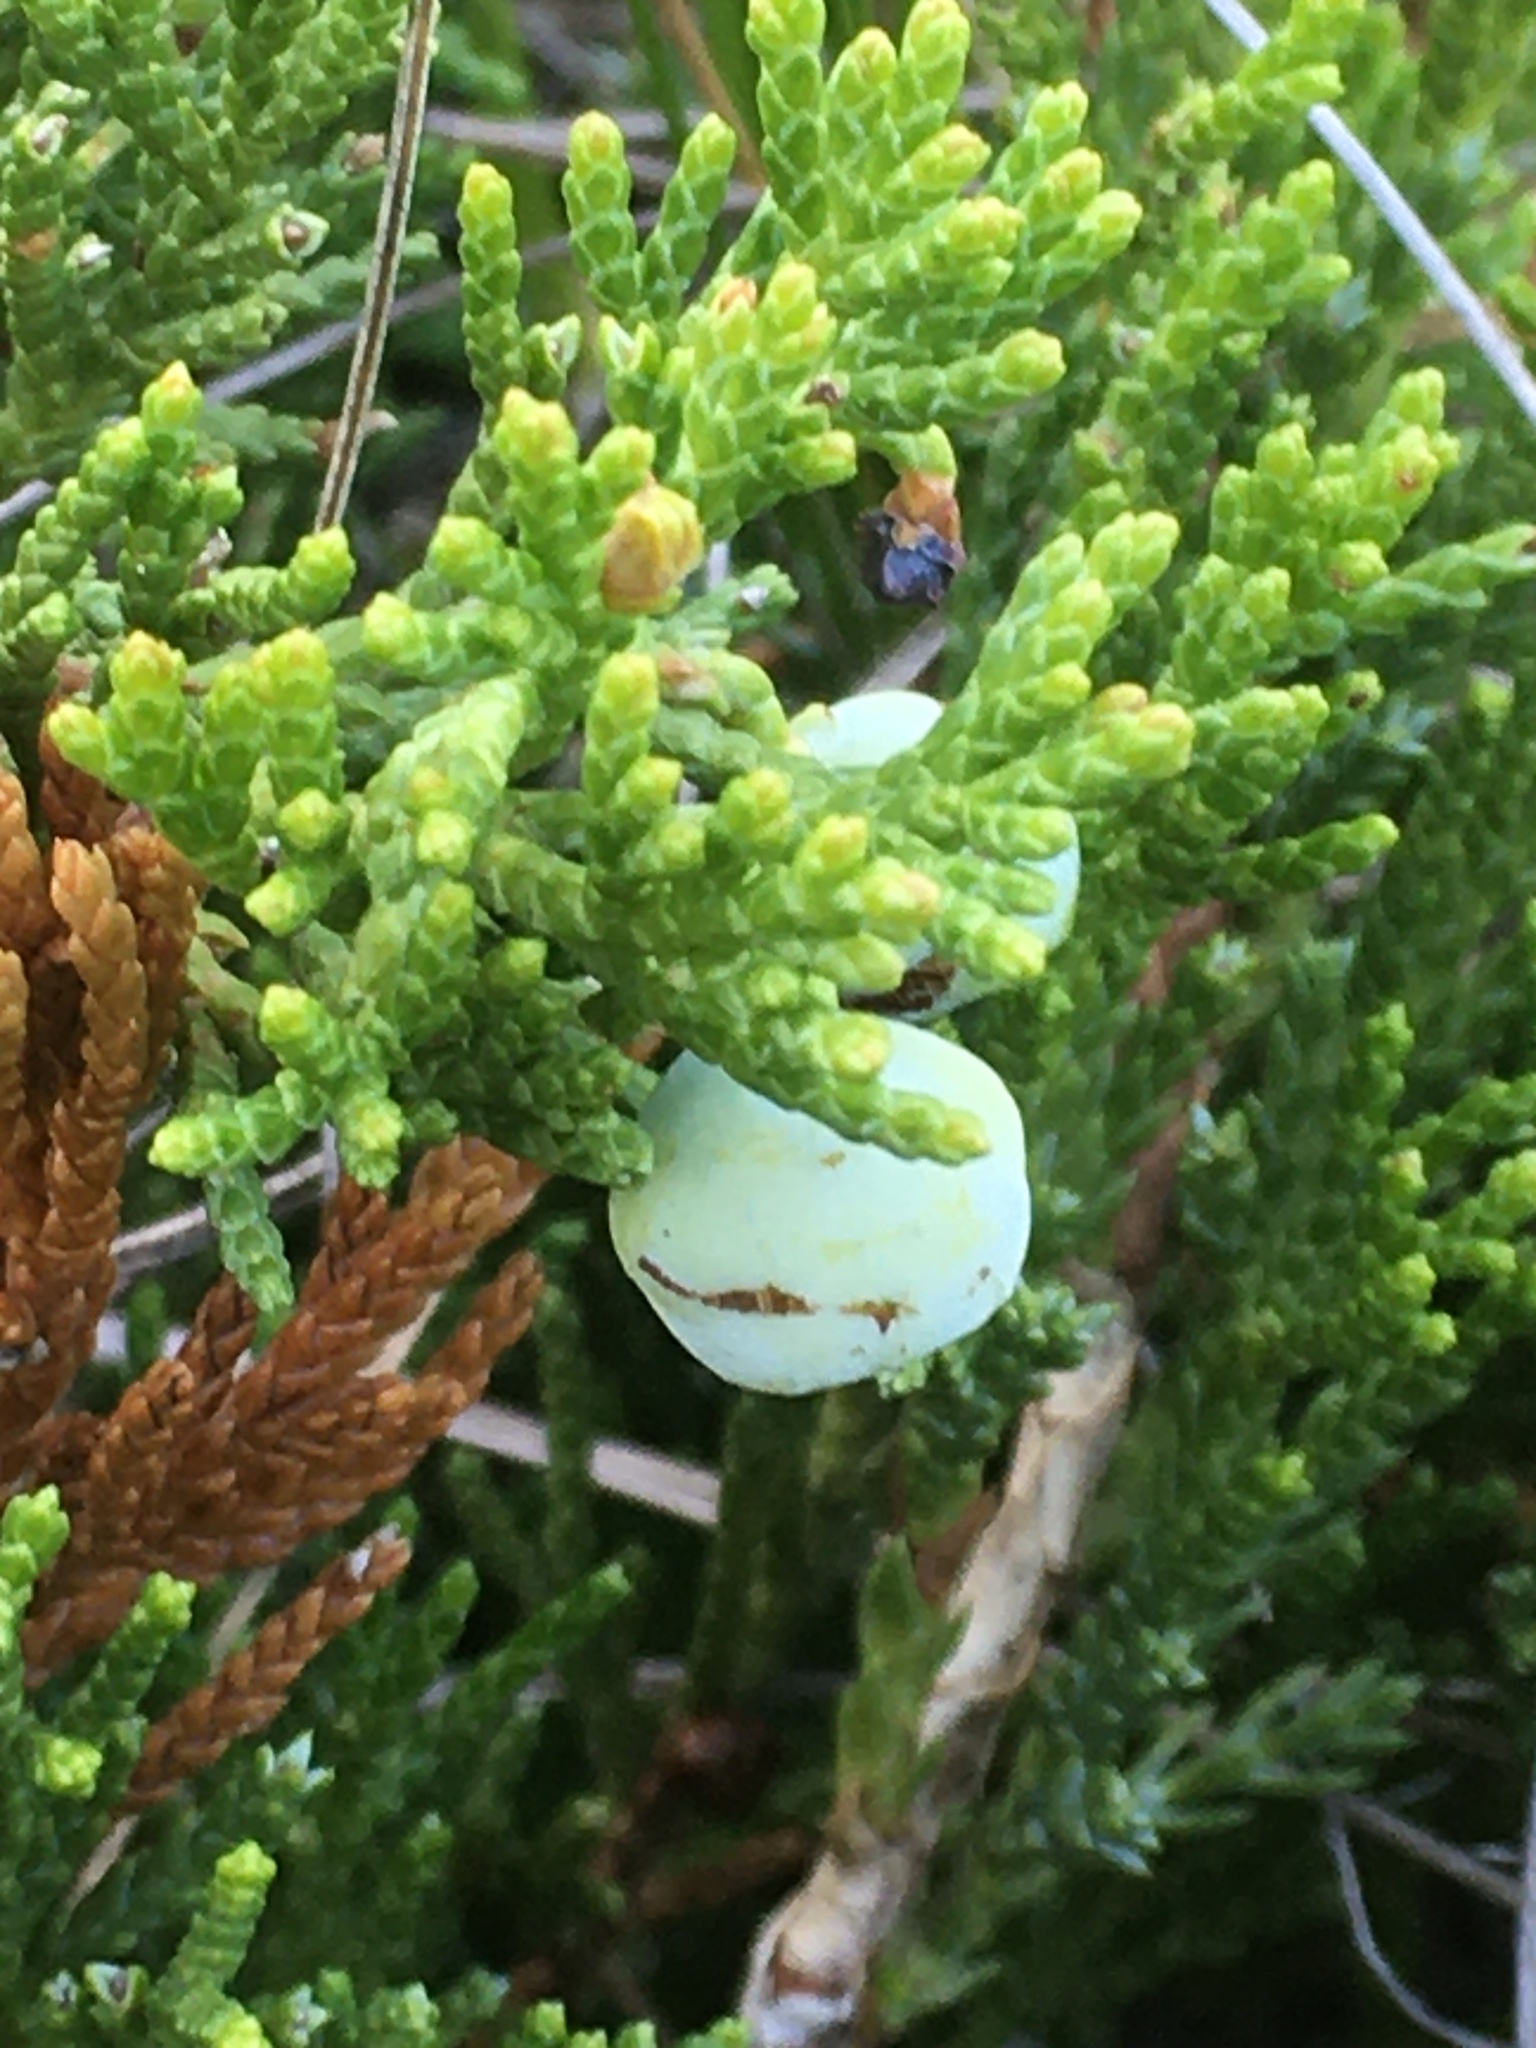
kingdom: Plantae
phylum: Tracheophyta
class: Pinopsida
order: Pinales
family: Cupressaceae
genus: Juniperus
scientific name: Juniperus horizontalis
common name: Creeping juniper
